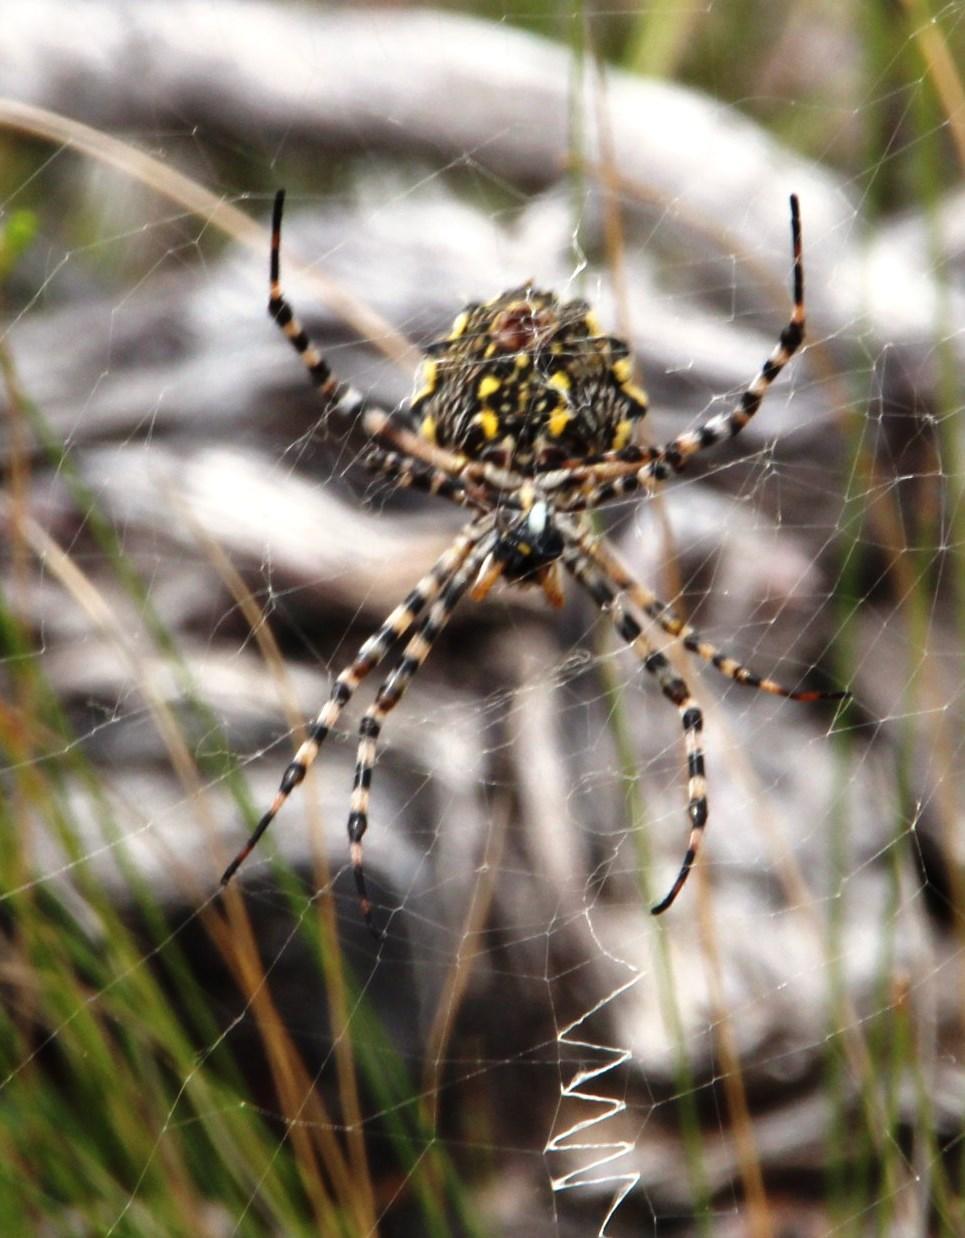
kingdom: Animalia
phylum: Arthropoda
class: Arachnida
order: Araneae
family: Araneidae
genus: Argiope
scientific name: Argiope australis
